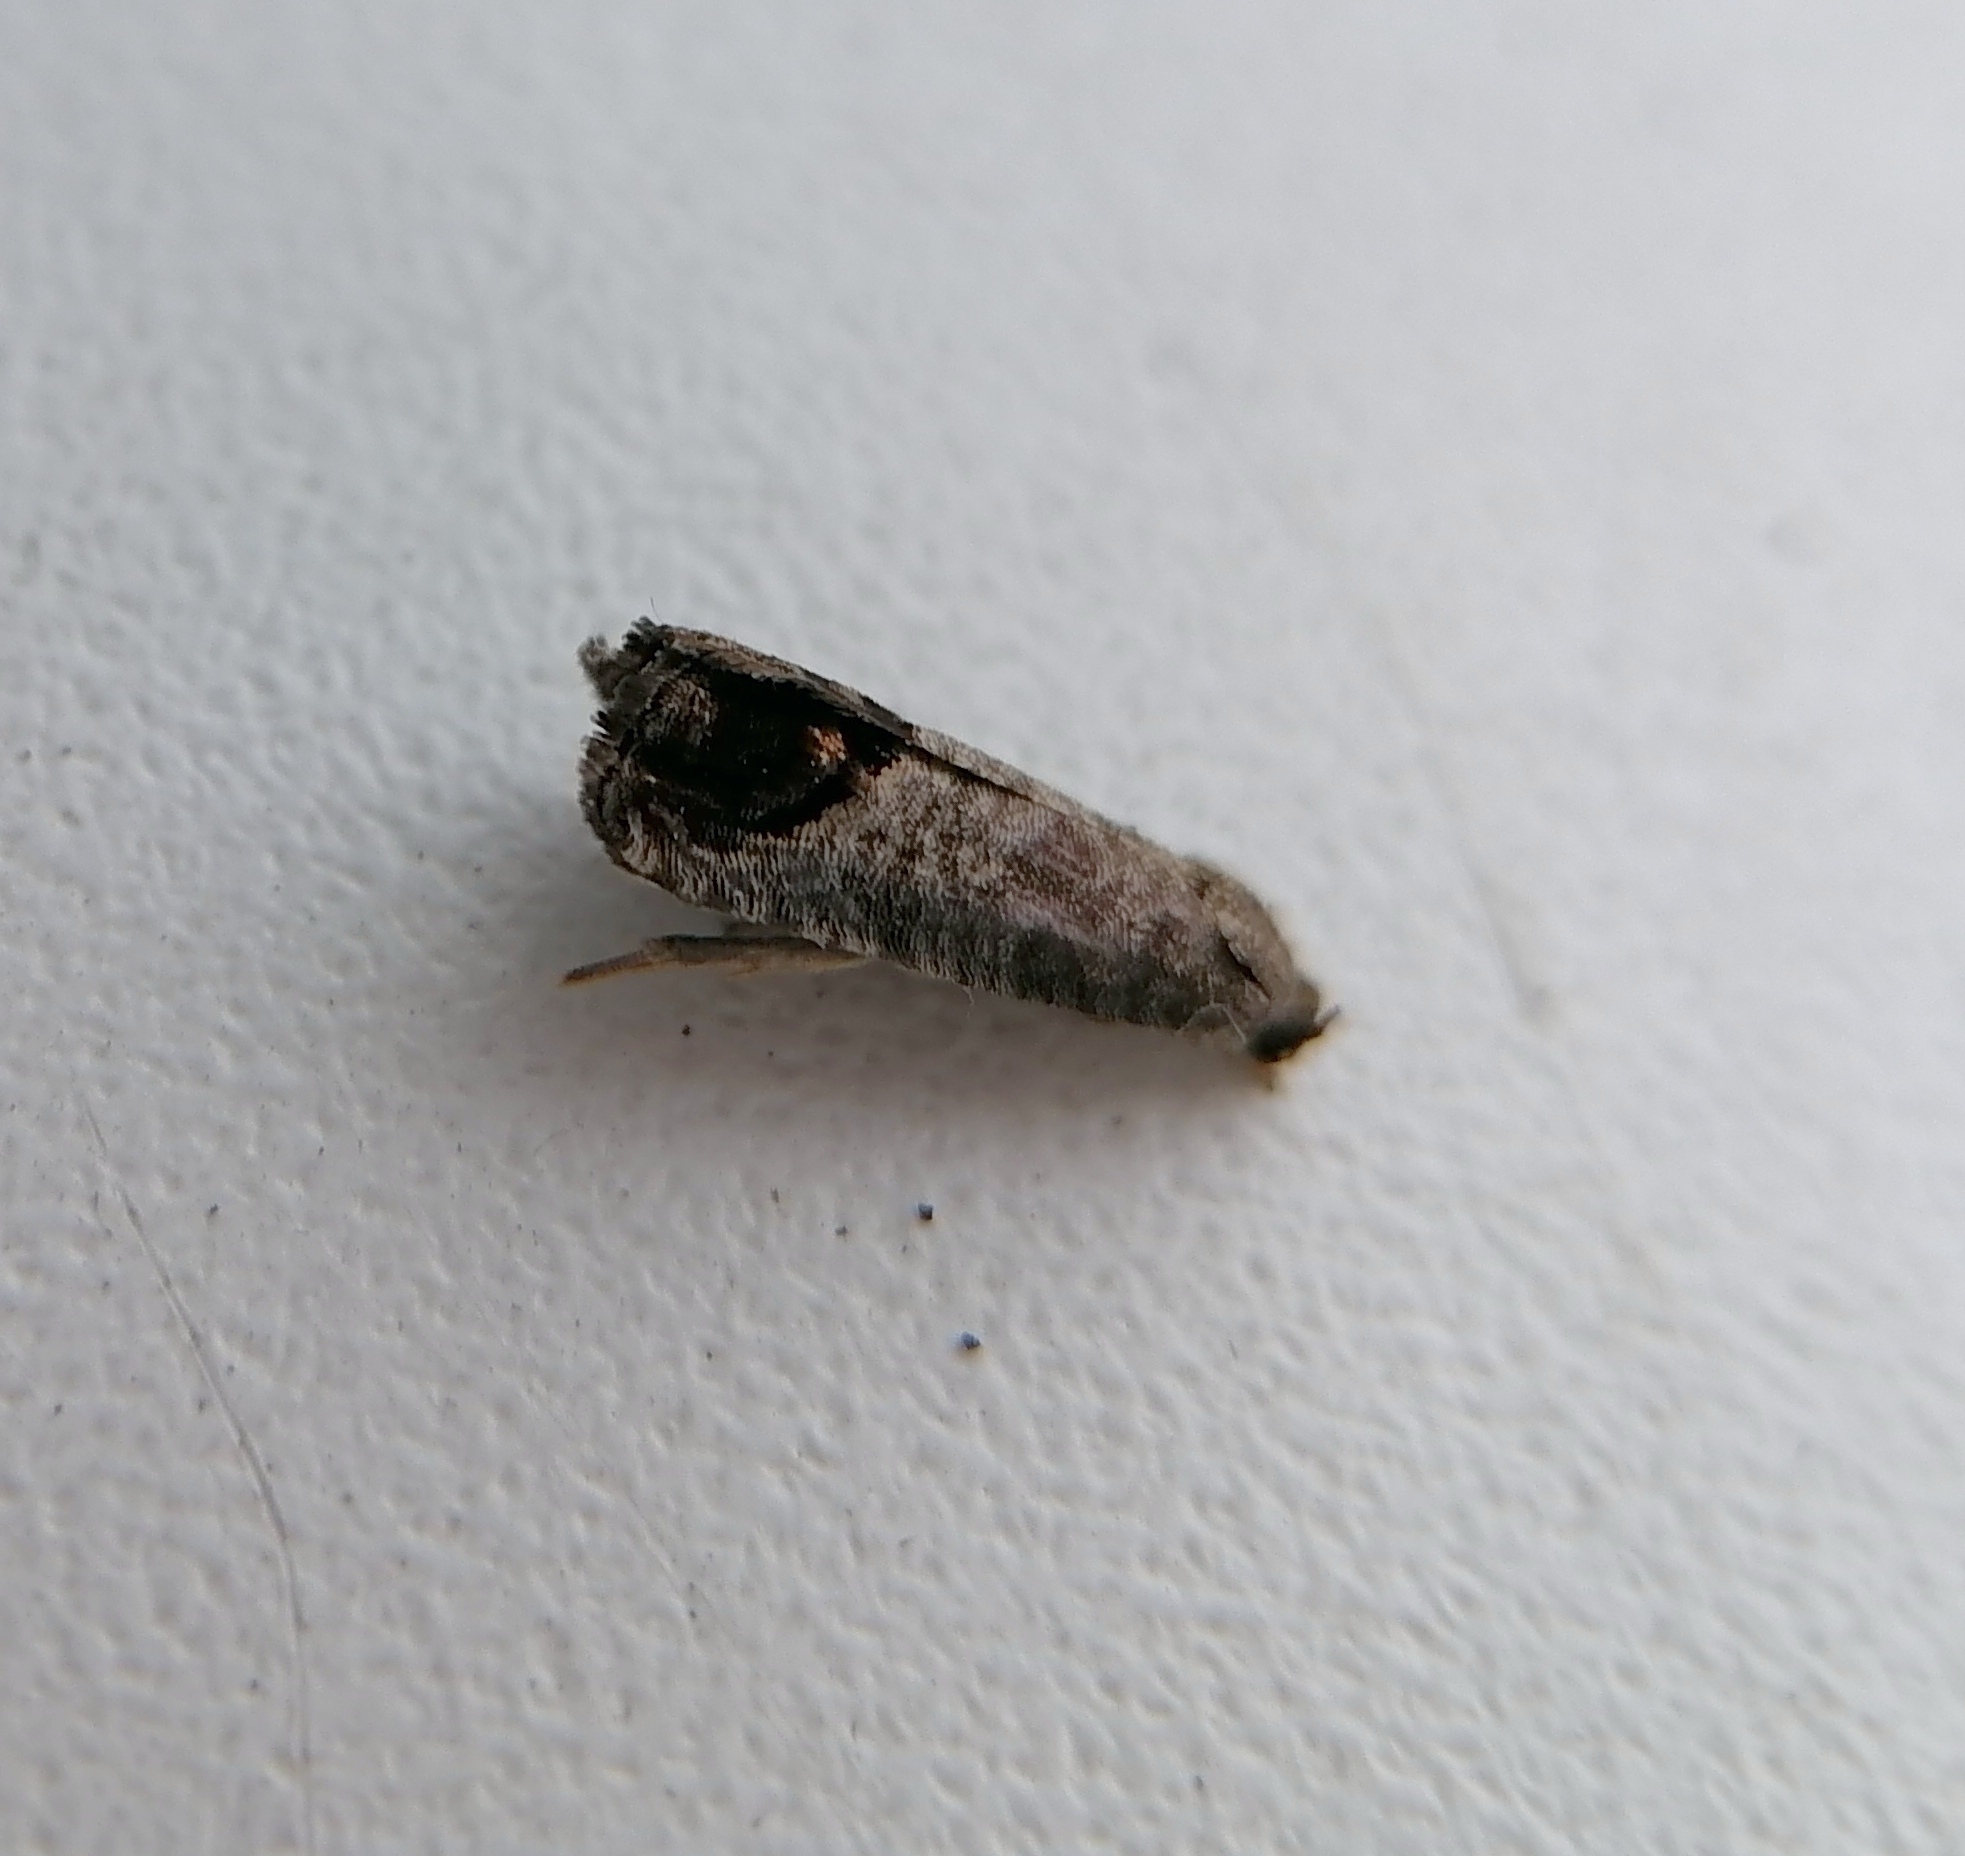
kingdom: Animalia
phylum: Arthropoda
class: Insecta
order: Lepidoptera
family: Tortricidae
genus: Cydia
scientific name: Cydia pomonella
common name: Codling moth
